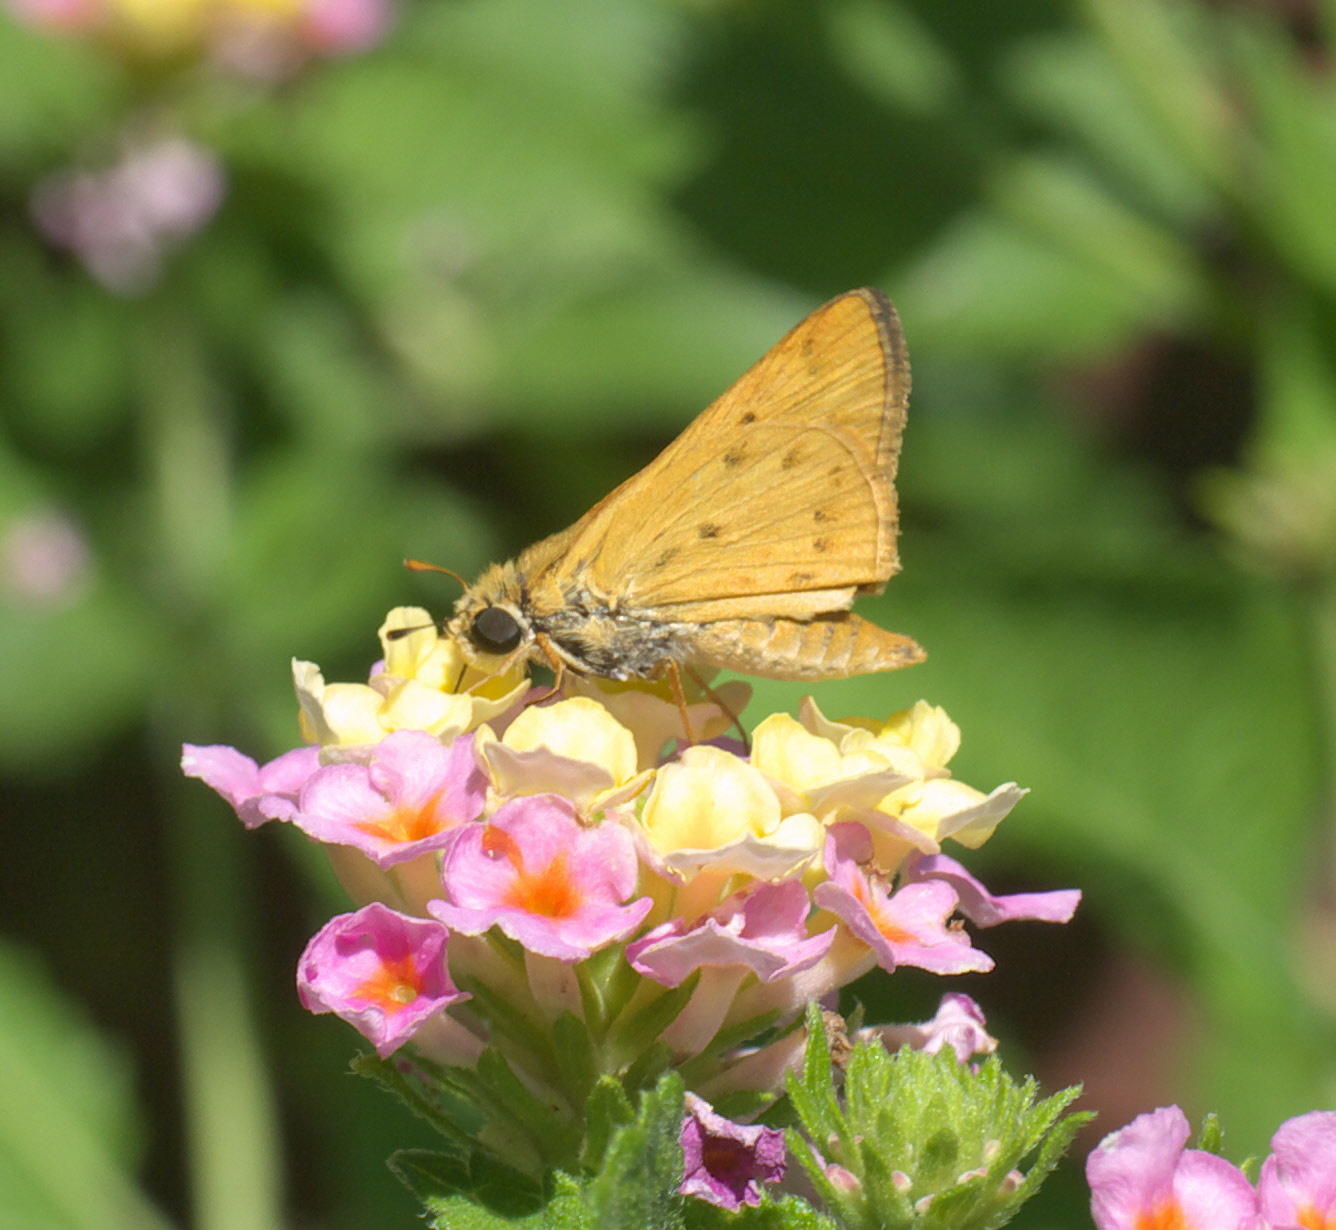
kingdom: Animalia
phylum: Arthropoda
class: Insecta
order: Lepidoptera
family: Hesperiidae
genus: Hylephila
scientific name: Hylephila phyleus
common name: Fiery skipper
